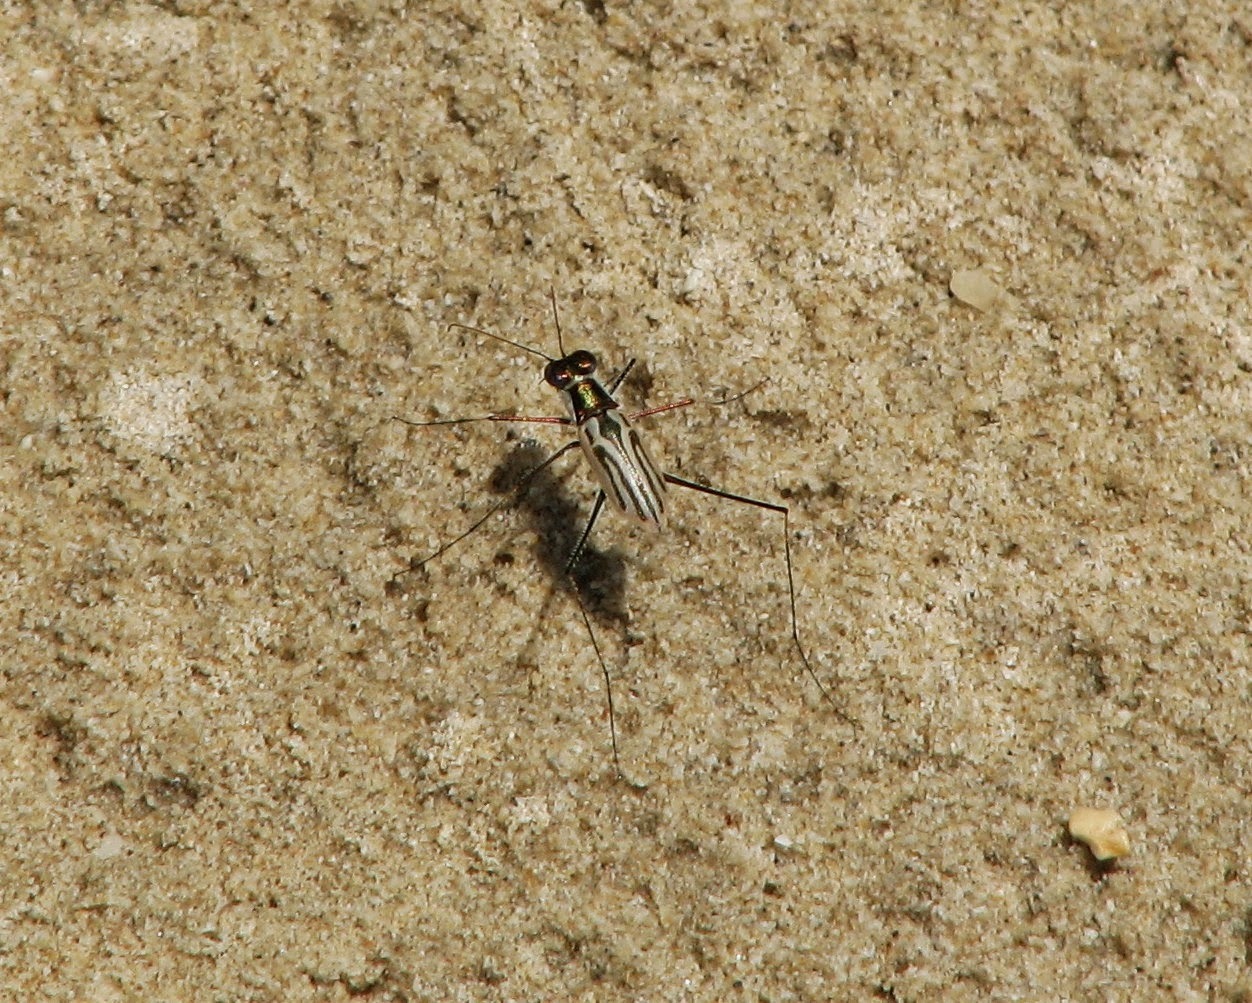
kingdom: Animalia
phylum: Arthropoda
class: Insecta
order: Coleoptera
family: Carabidae
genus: Abroscelis
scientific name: Abroscelis tenuipes
